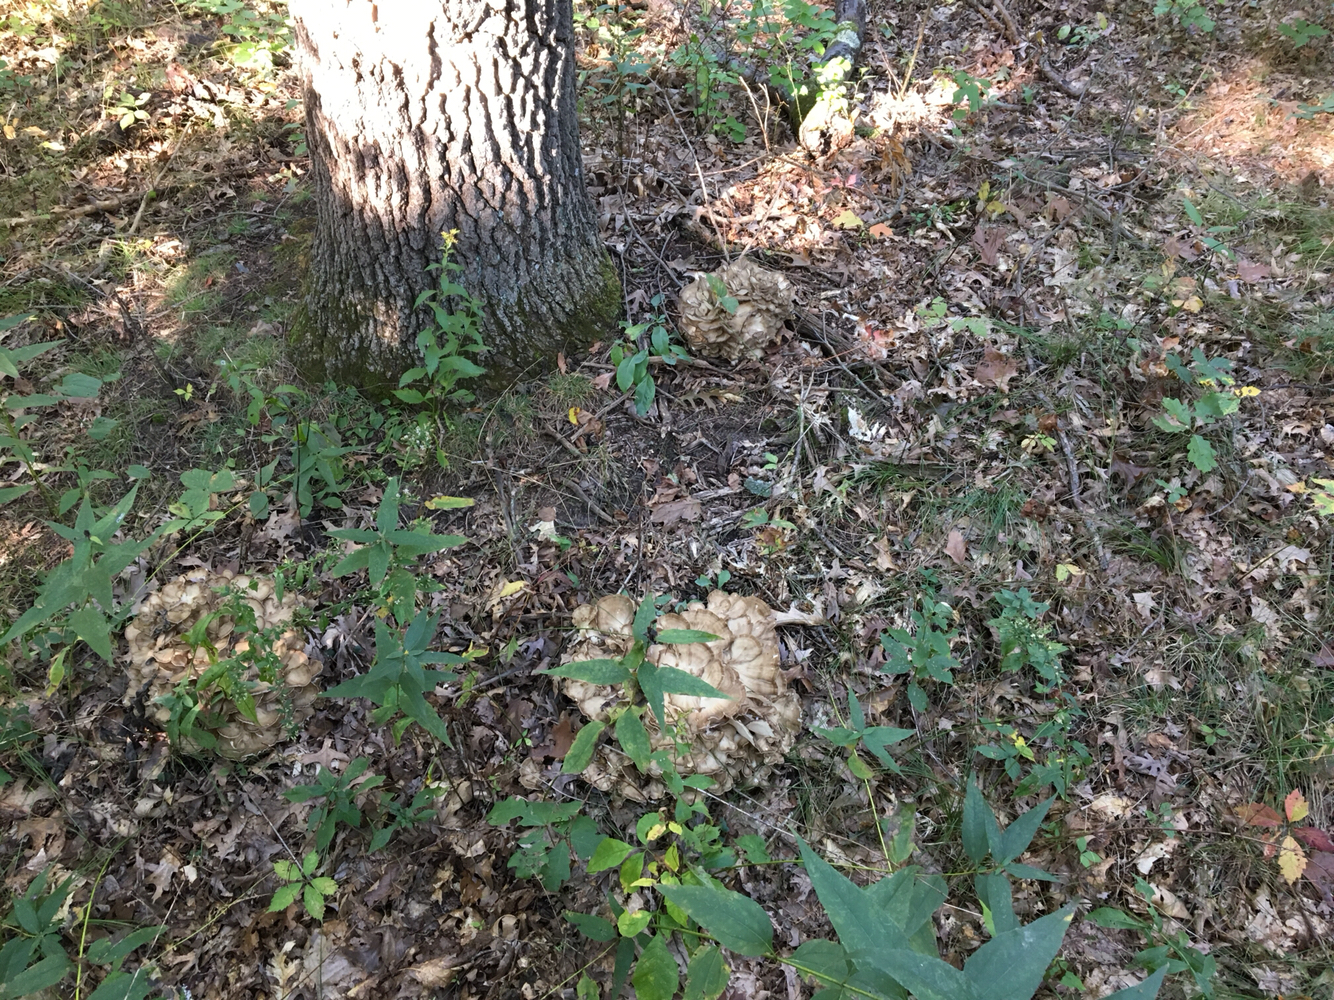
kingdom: Fungi
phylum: Basidiomycota
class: Agaricomycetes
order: Polyporales
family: Grifolaceae
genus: Grifola
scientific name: Grifola frondosa
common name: Hen of the woods
